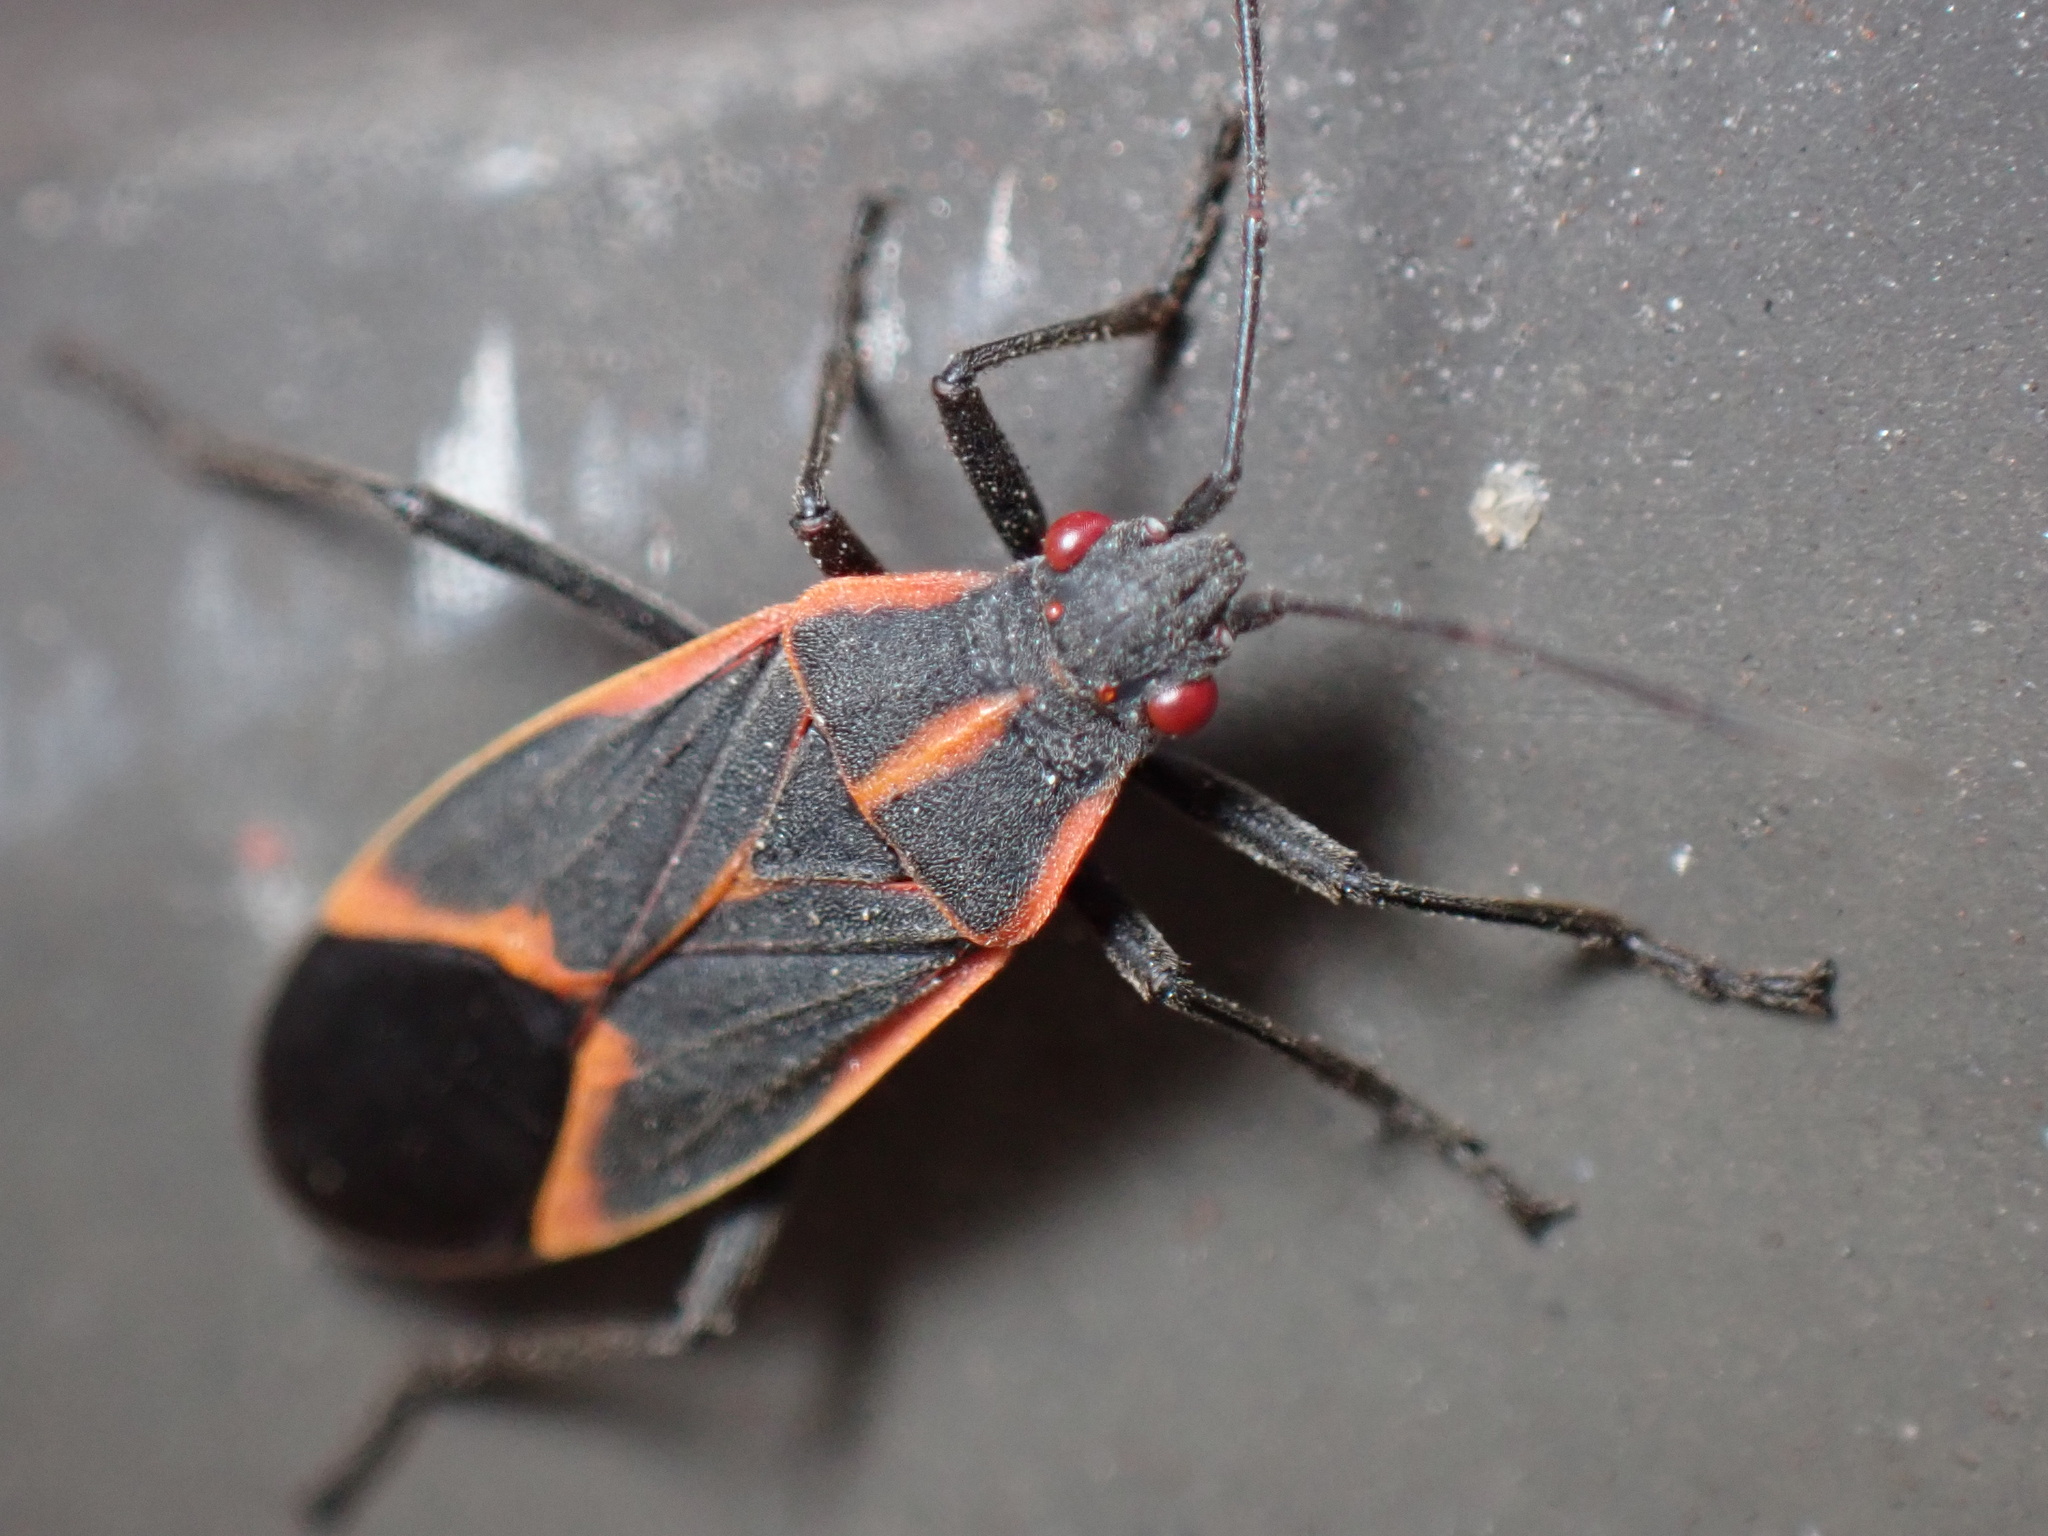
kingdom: Animalia
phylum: Arthropoda
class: Insecta
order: Hemiptera
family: Rhopalidae
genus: Boisea
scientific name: Boisea trivittata
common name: Boxelder bug
